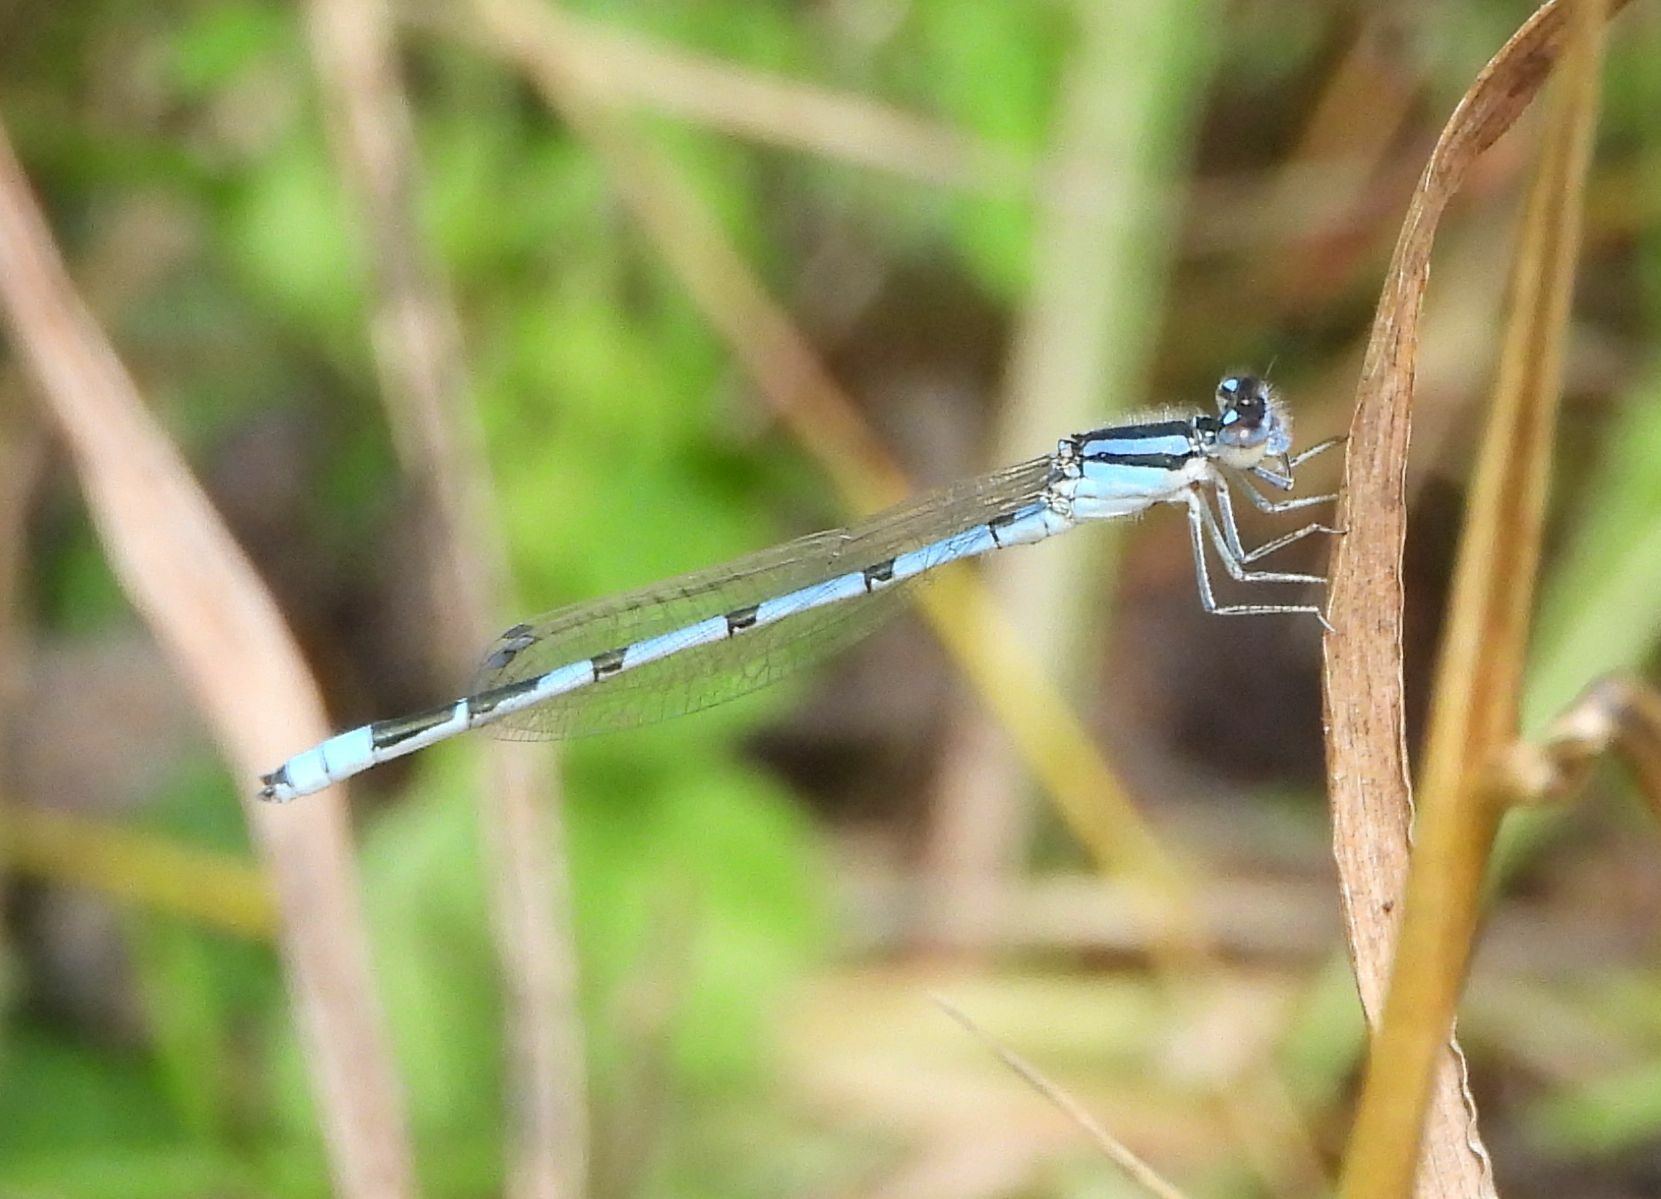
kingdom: Animalia
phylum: Arthropoda
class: Insecta
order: Odonata
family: Coenagrionidae
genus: Enallagma
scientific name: Enallagma civile
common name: Damselfly
